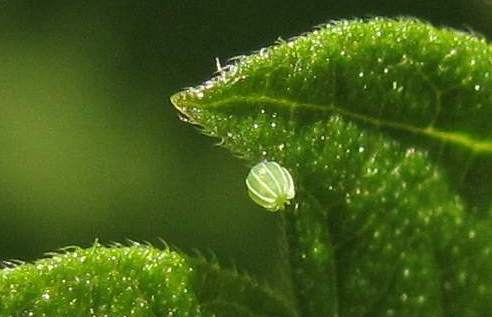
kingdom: Animalia
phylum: Arthropoda
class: Insecta
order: Lepidoptera
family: Nymphalidae
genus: Vanessa
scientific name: Vanessa atalanta
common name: Red admiral
